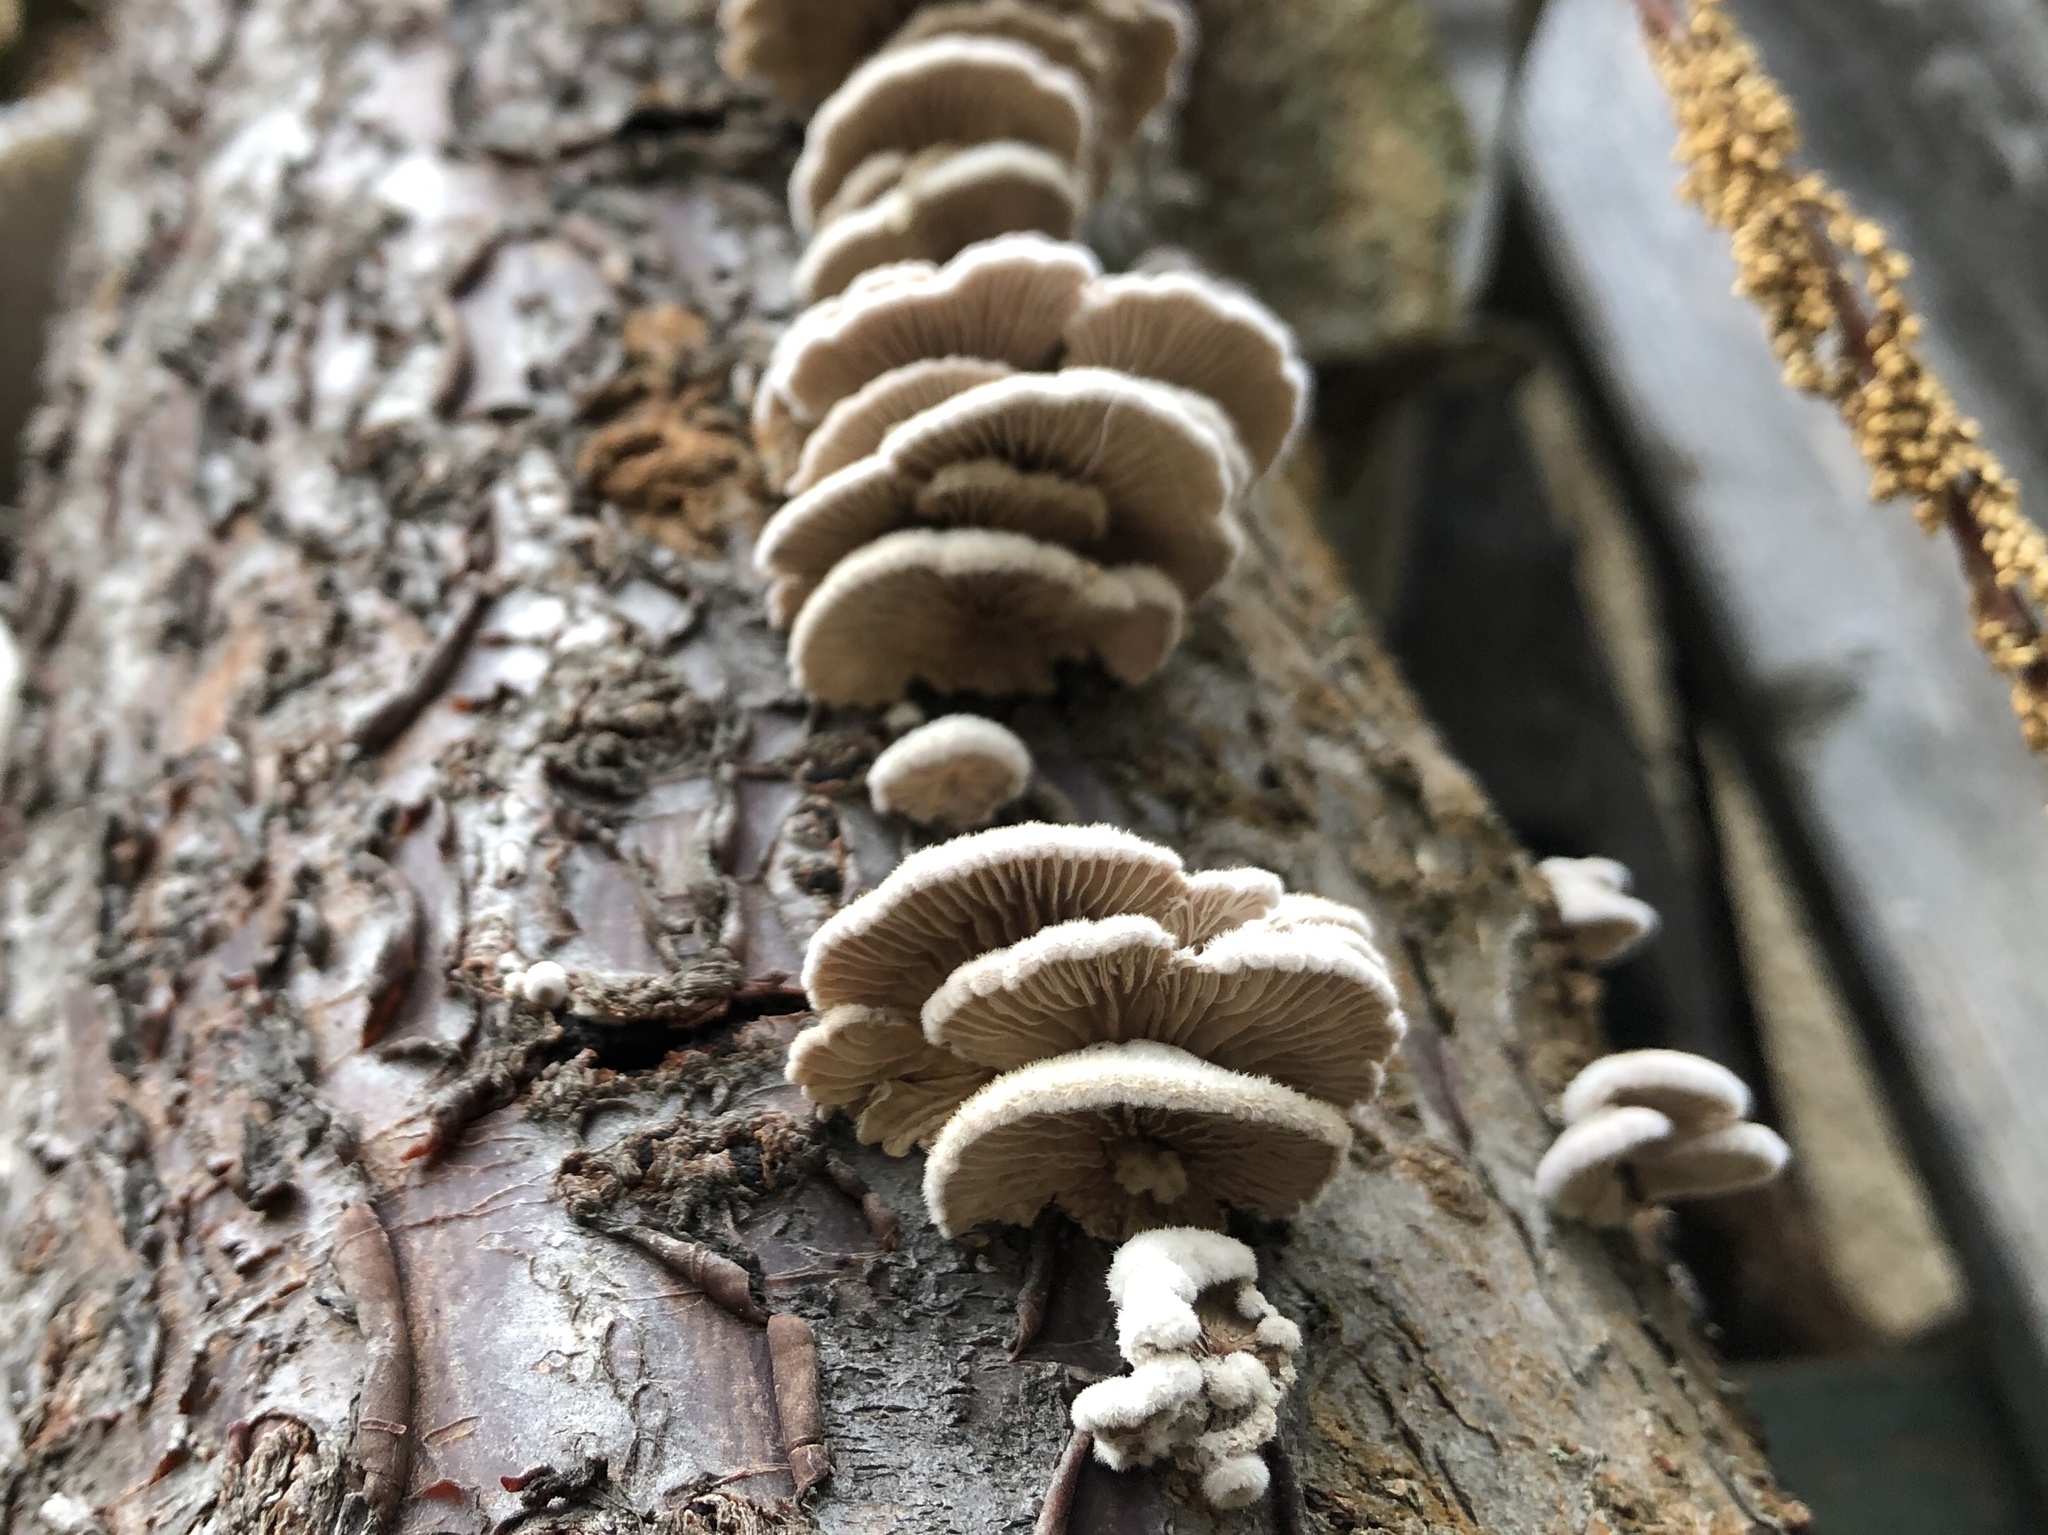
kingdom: Fungi
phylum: Basidiomycota
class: Agaricomycetes
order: Agaricales
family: Schizophyllaceae
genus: Schizophyllum
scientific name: Schizophyllum commune
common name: Common porecrust
